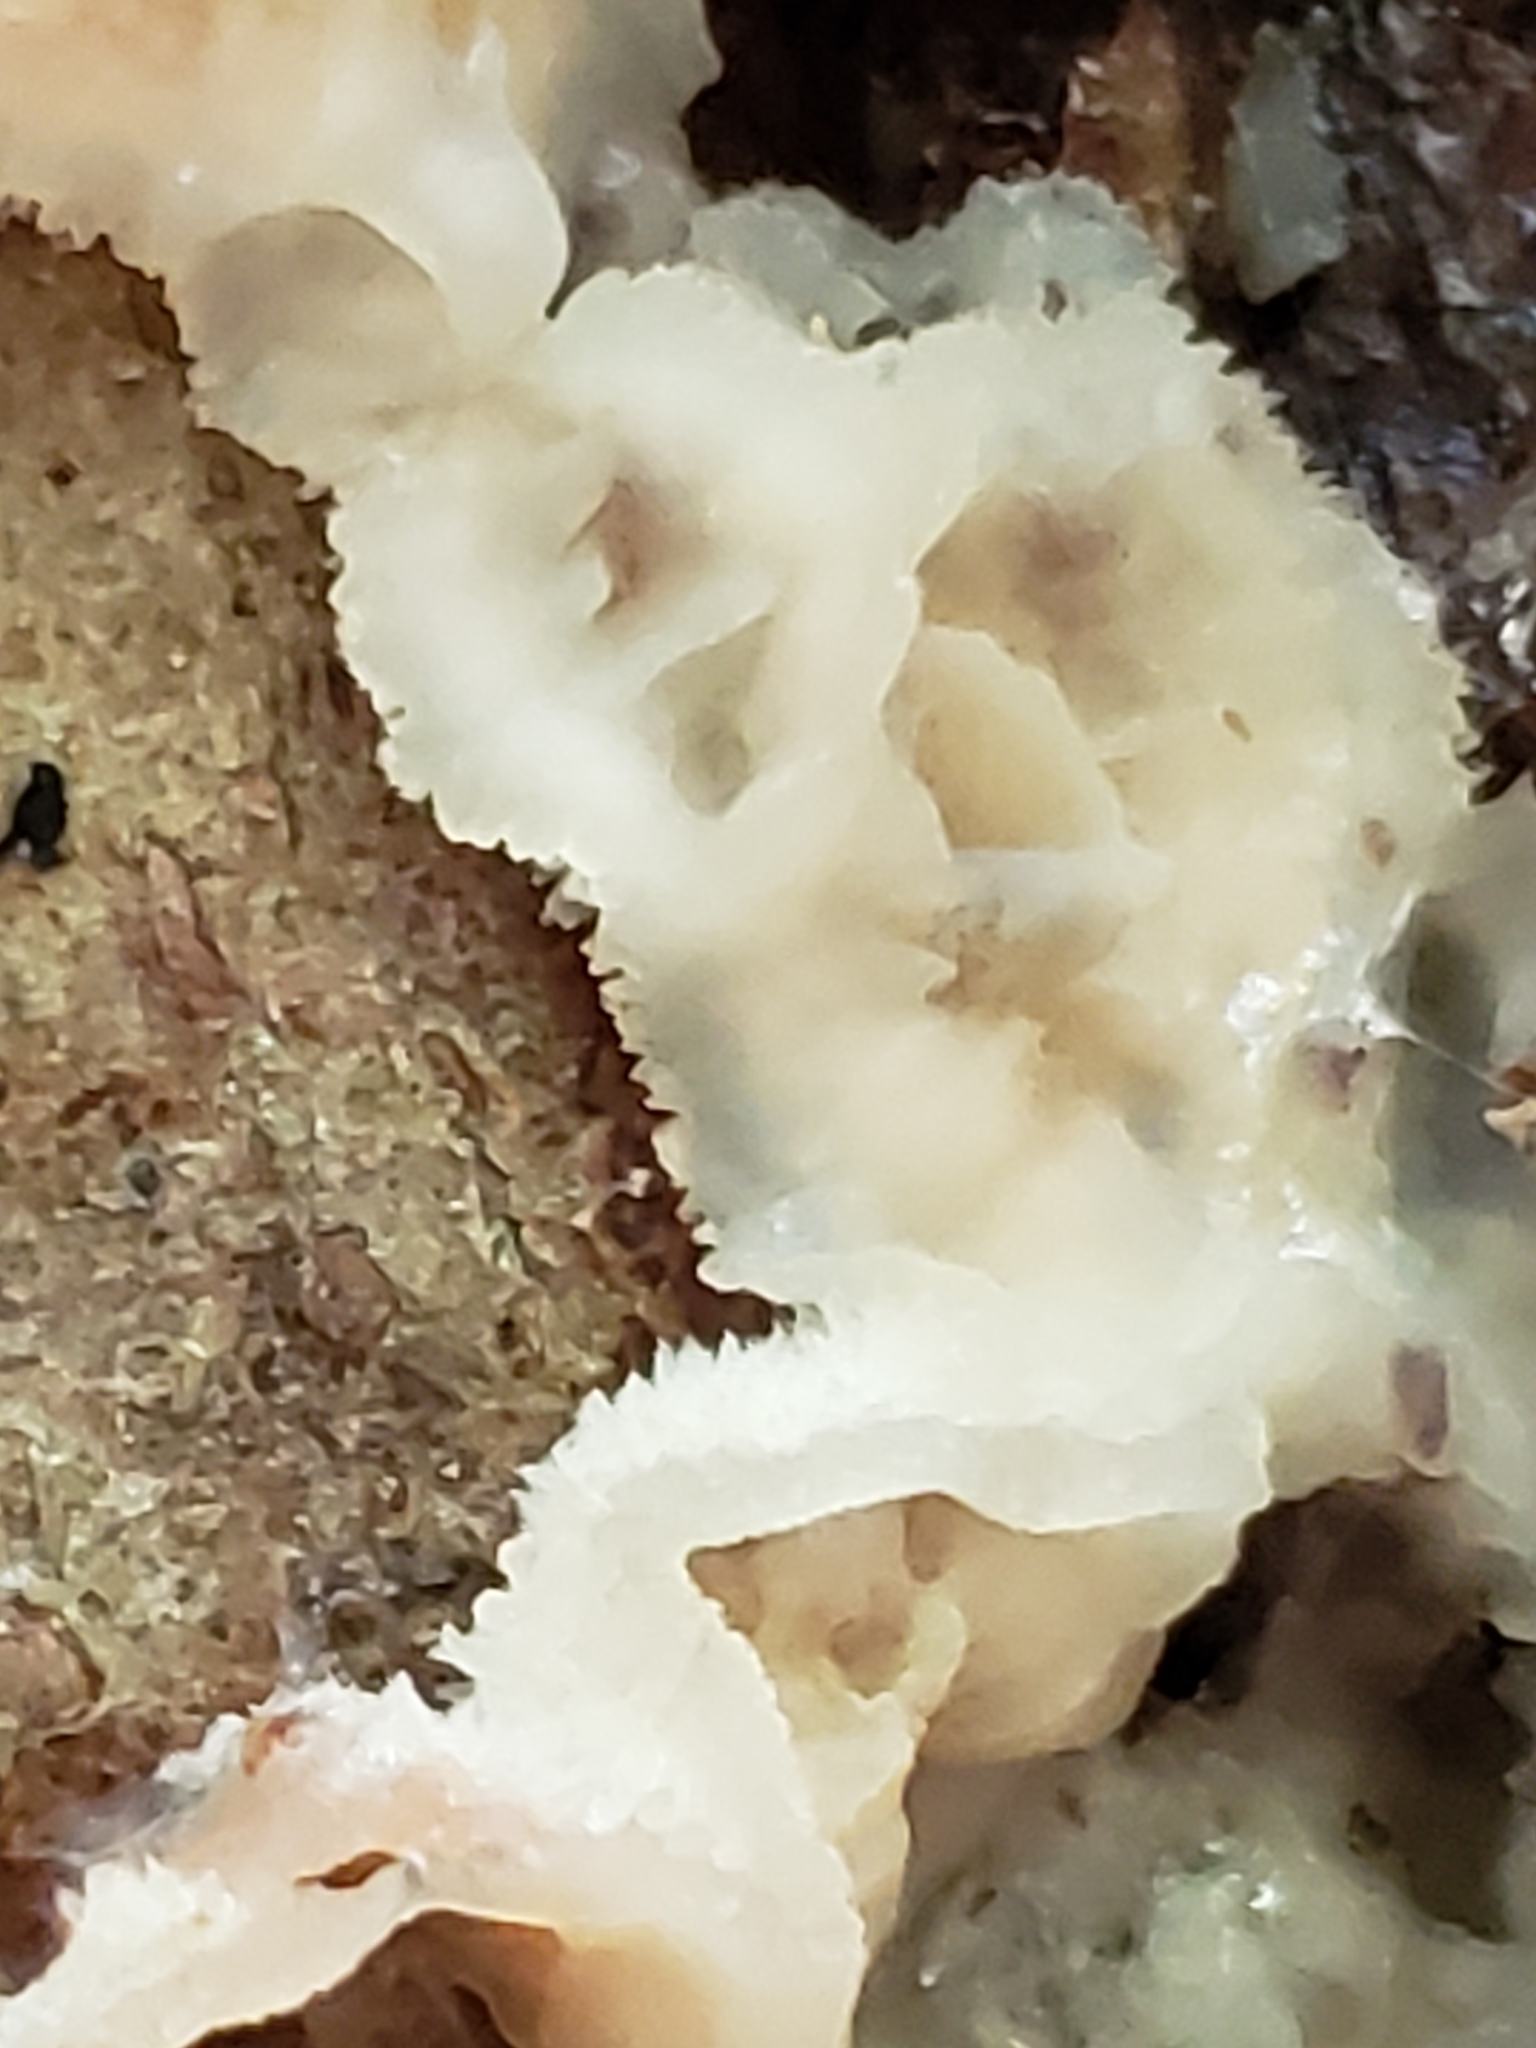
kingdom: Fungi
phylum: Basidiomycota
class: Agaricomycetes
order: Polyporales
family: Meruliaceae
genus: Phlebia
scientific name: Phlebia tremellosa
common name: Jelly rot
